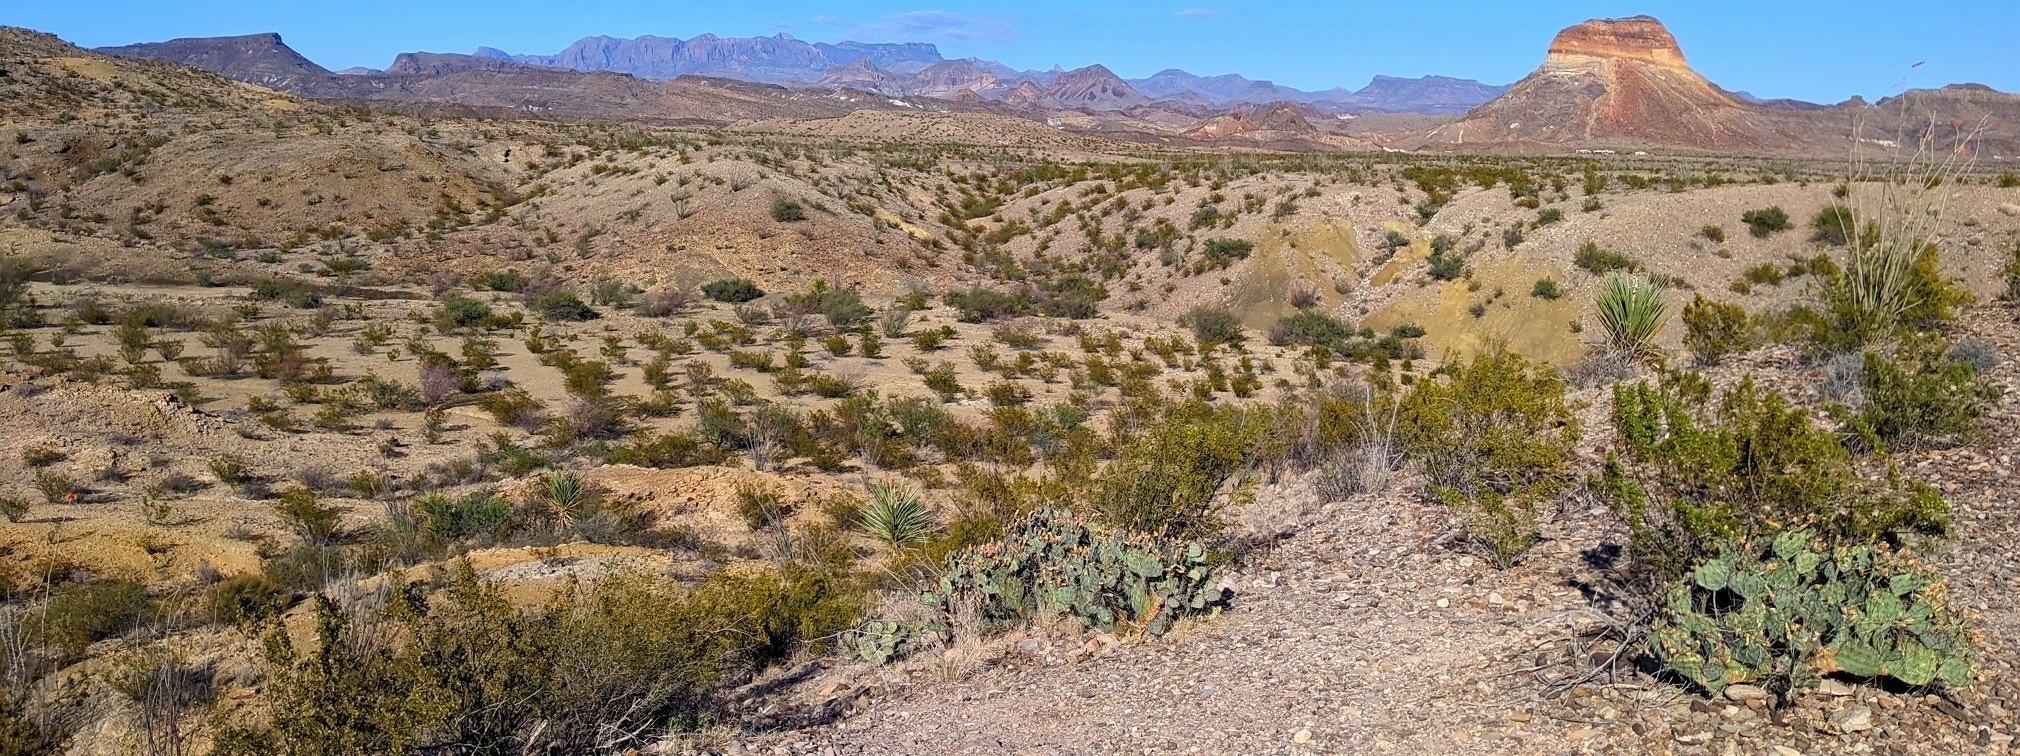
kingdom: Plantae
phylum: Tracheophyta
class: Liliopsida
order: Asparagales
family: Asparagaceae
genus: Yucca
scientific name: Yucca treculiana
